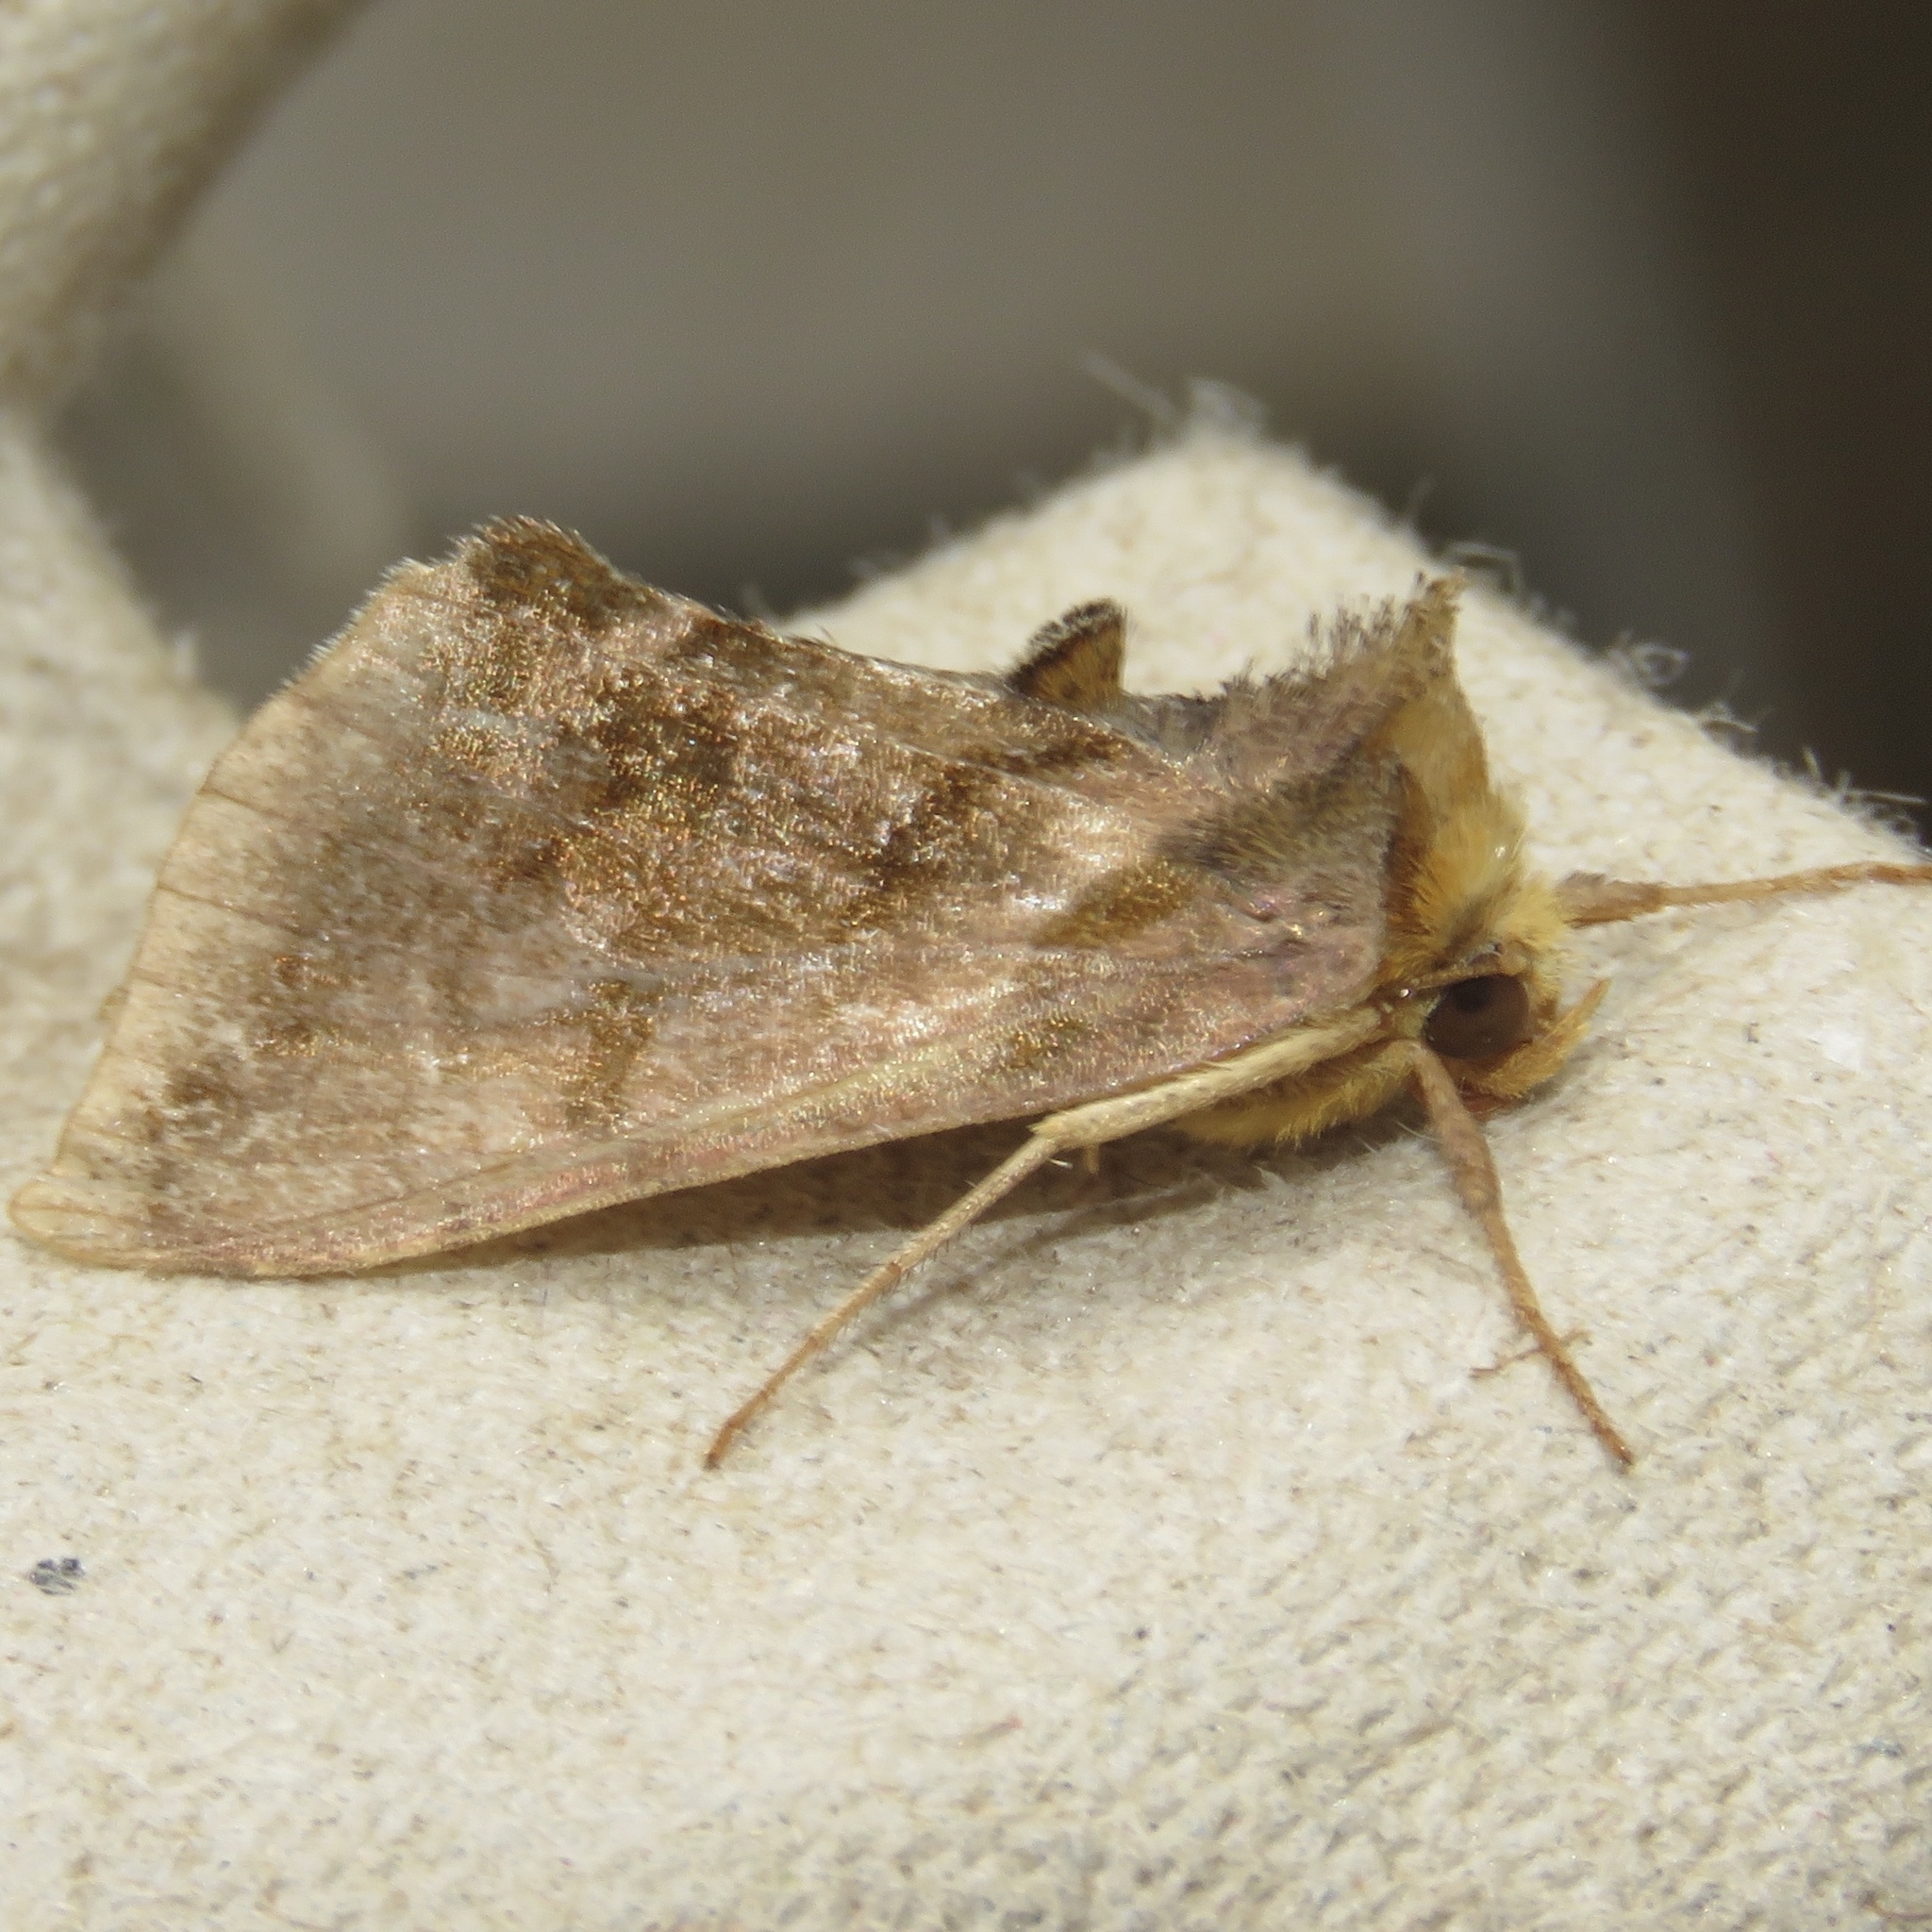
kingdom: Animalia
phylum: Arthropoda
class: Insecta
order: Lepidoptera
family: Noctuidae
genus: Allagrapha
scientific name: Allagrapha aerea
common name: Unspotted looper moth
